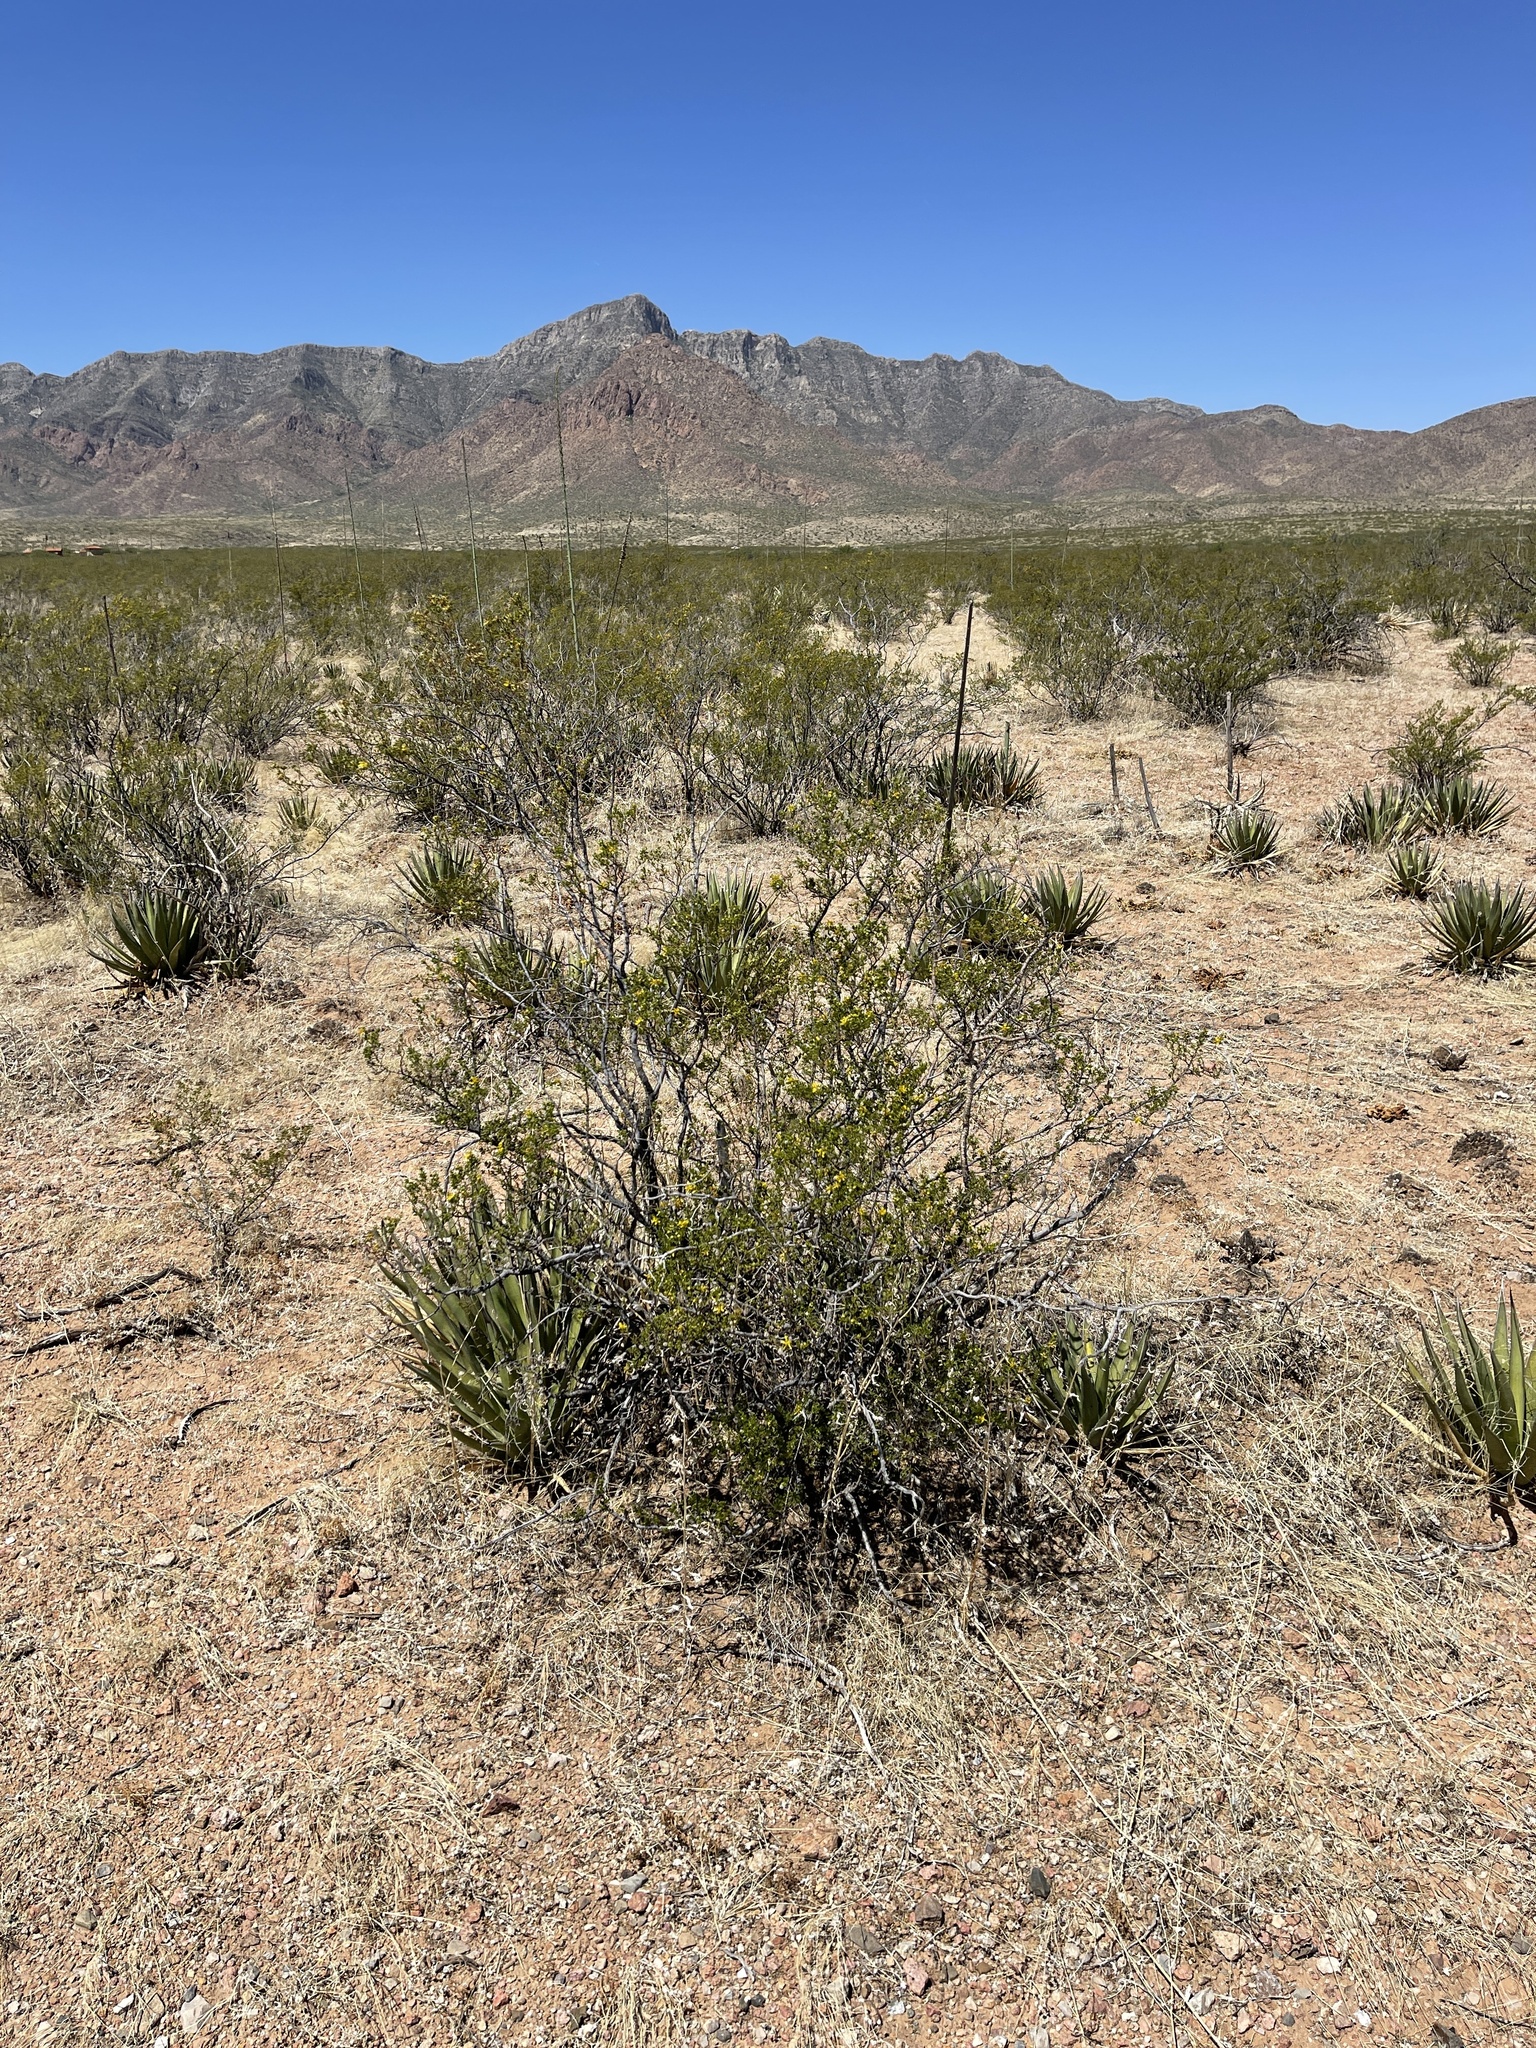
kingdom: Plantae
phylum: Tracheophyta
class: Magnoliopsida
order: Zygophyllales
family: Zygophyllaceae
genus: Larrea
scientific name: Larrea tridentata
